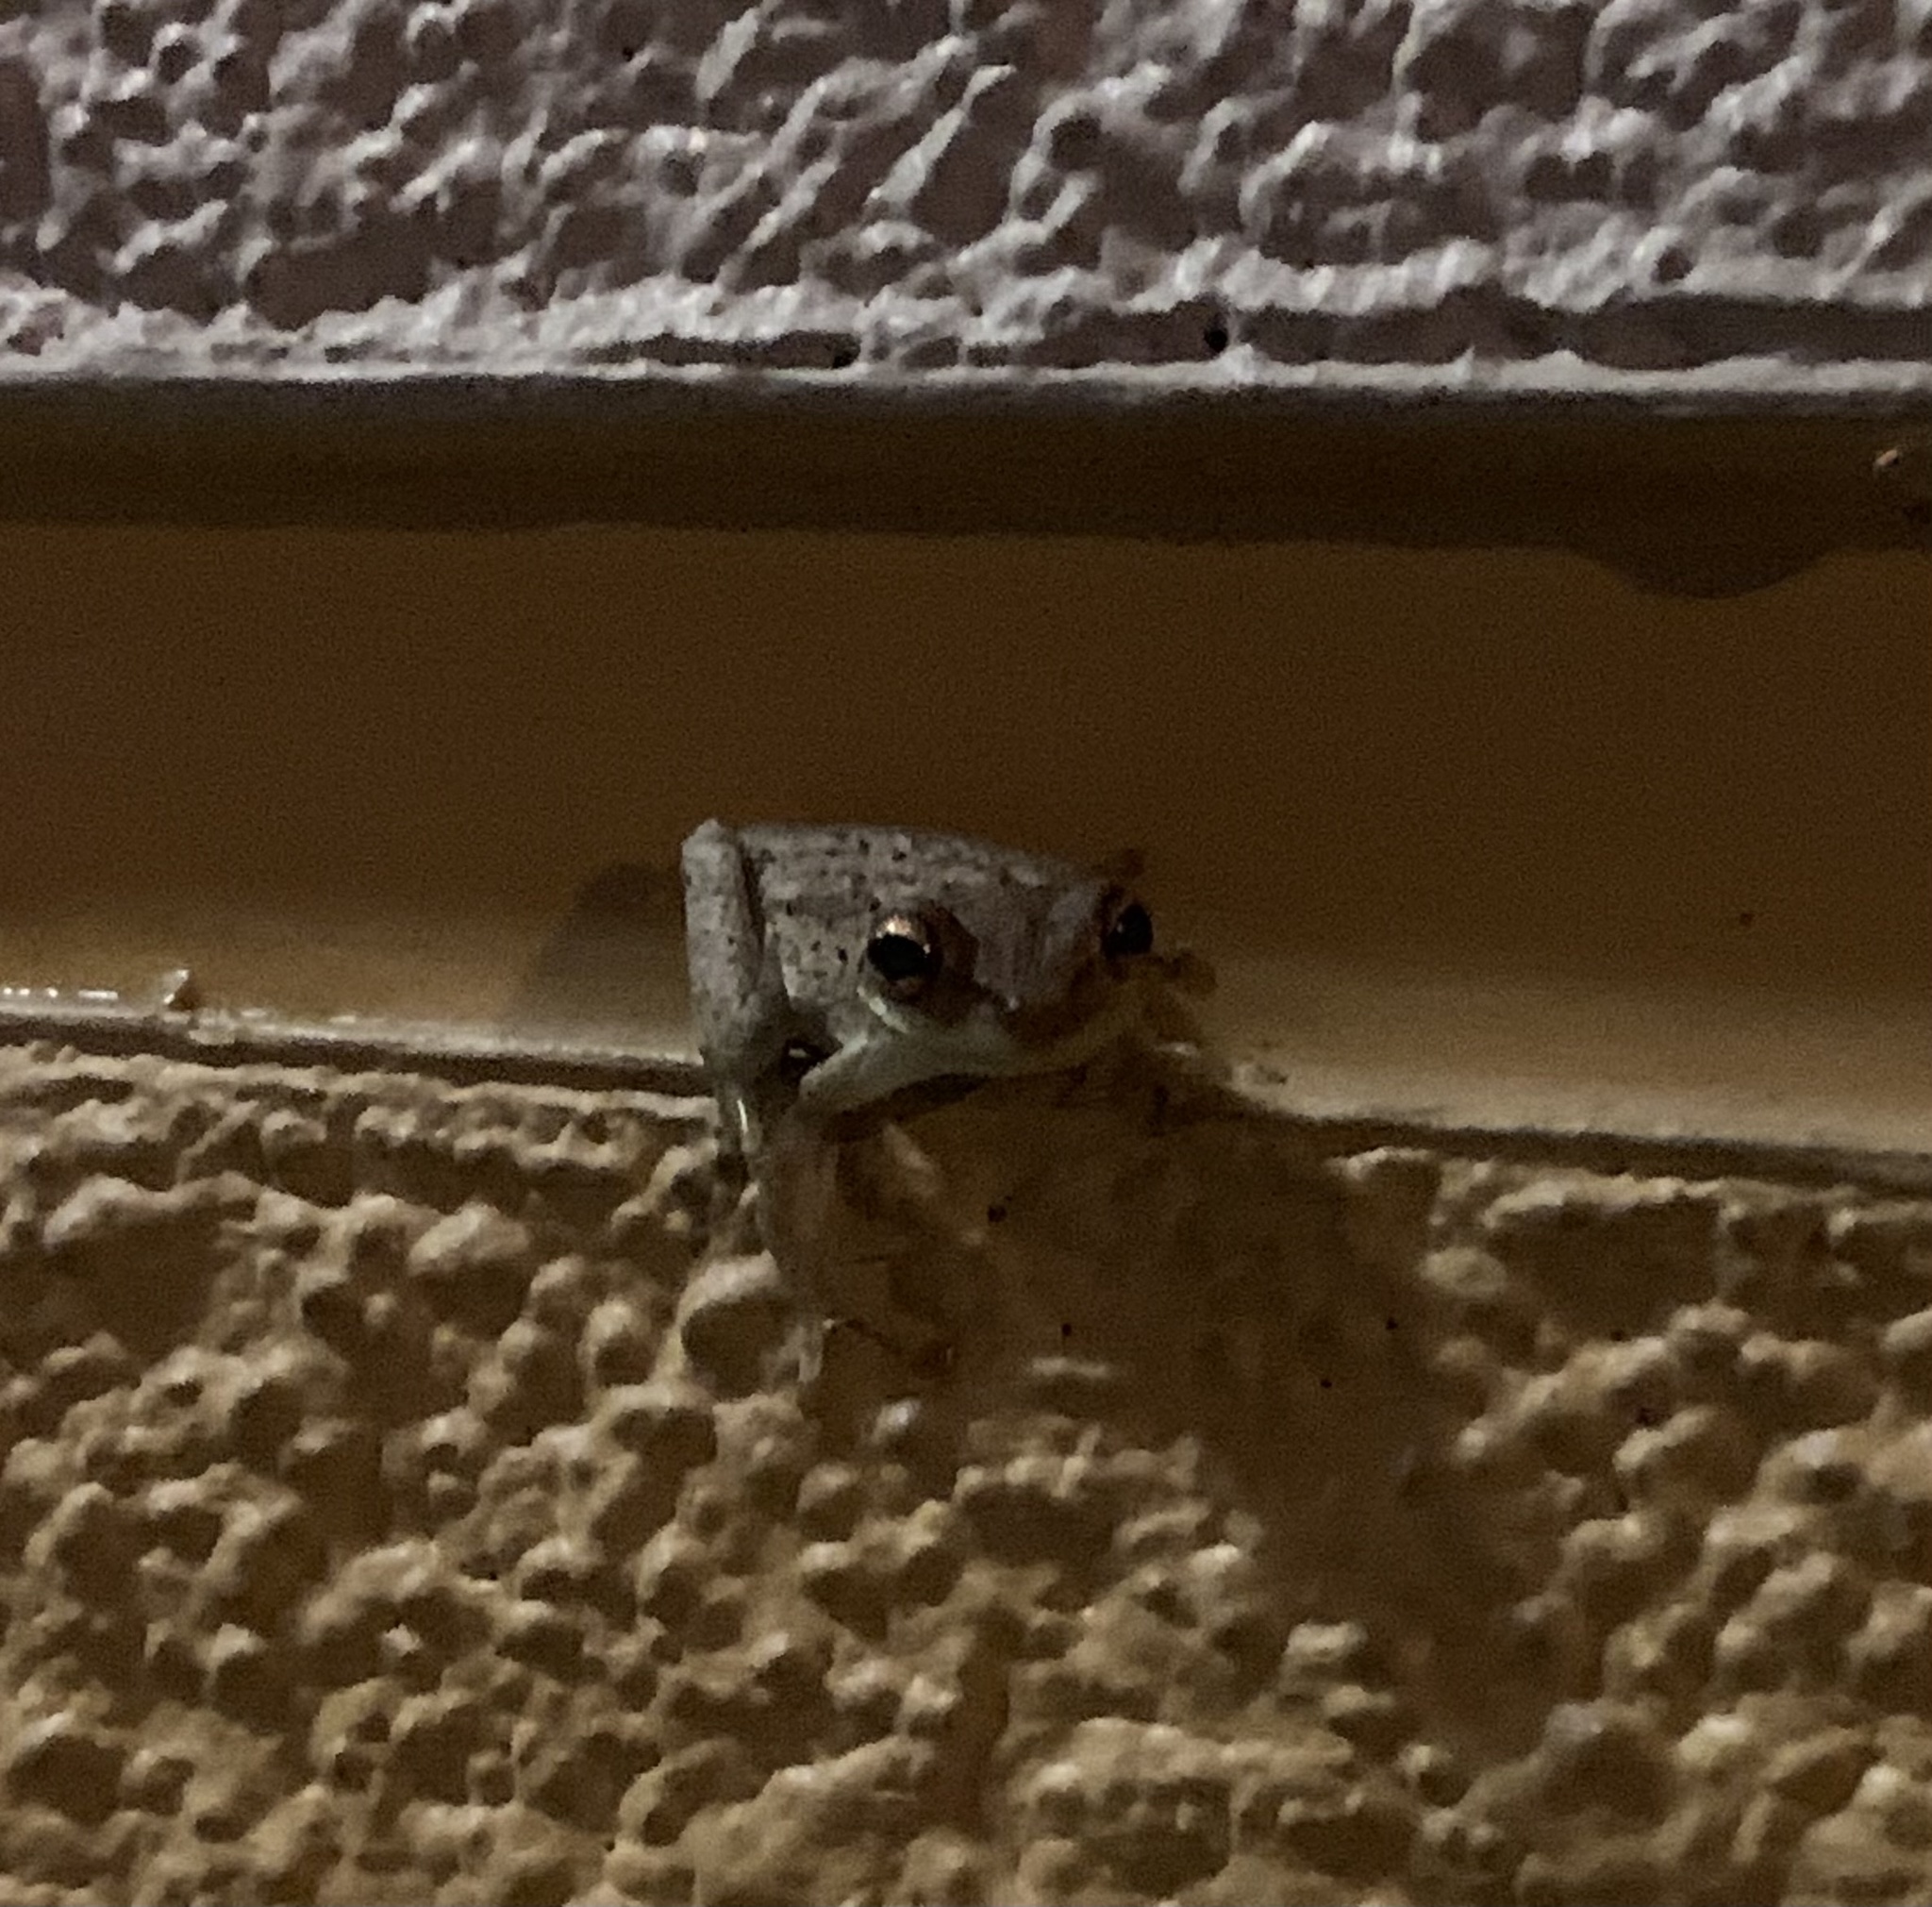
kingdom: Animalia
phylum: Chordata
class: Amphibia
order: Anura
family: Hylidae
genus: Osteopilus
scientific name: Osteopilus septentrionalis
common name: Cuban treefrog
